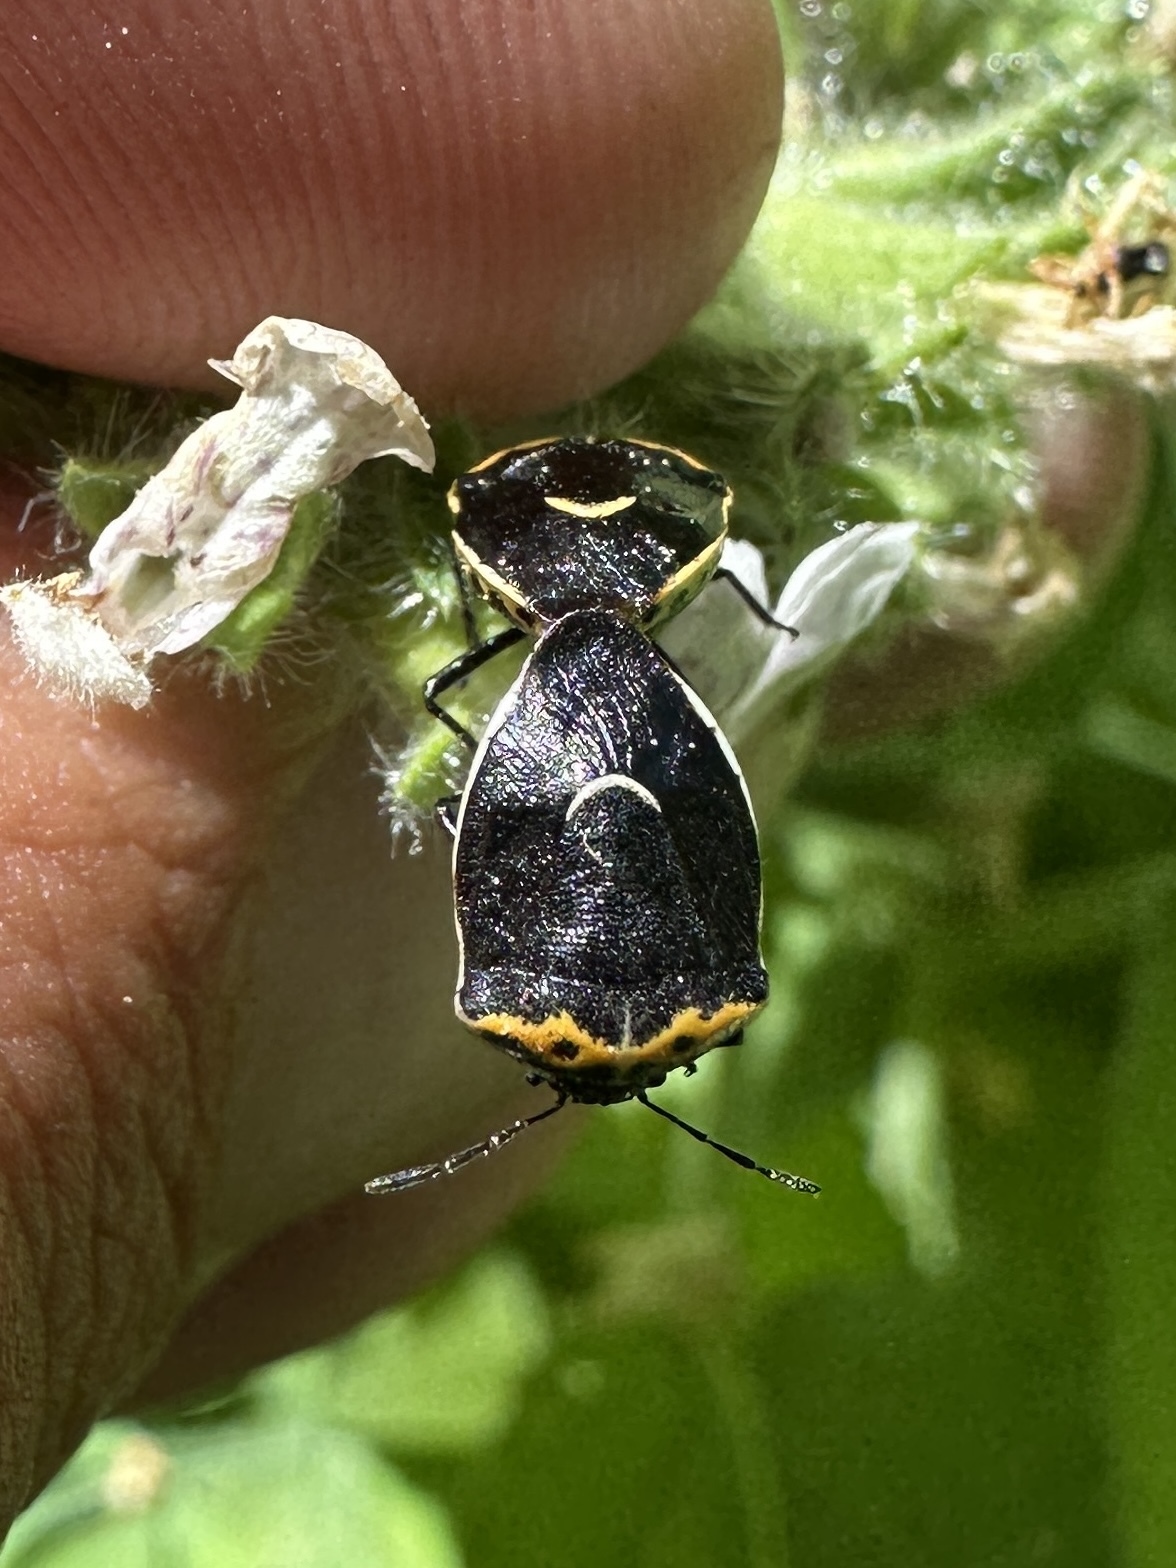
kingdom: Animalia
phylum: Arthropoda
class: Insecta
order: Hemiptera
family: Pentatomidae
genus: Cosmopepla
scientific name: Cosmopepla conspicillaris
